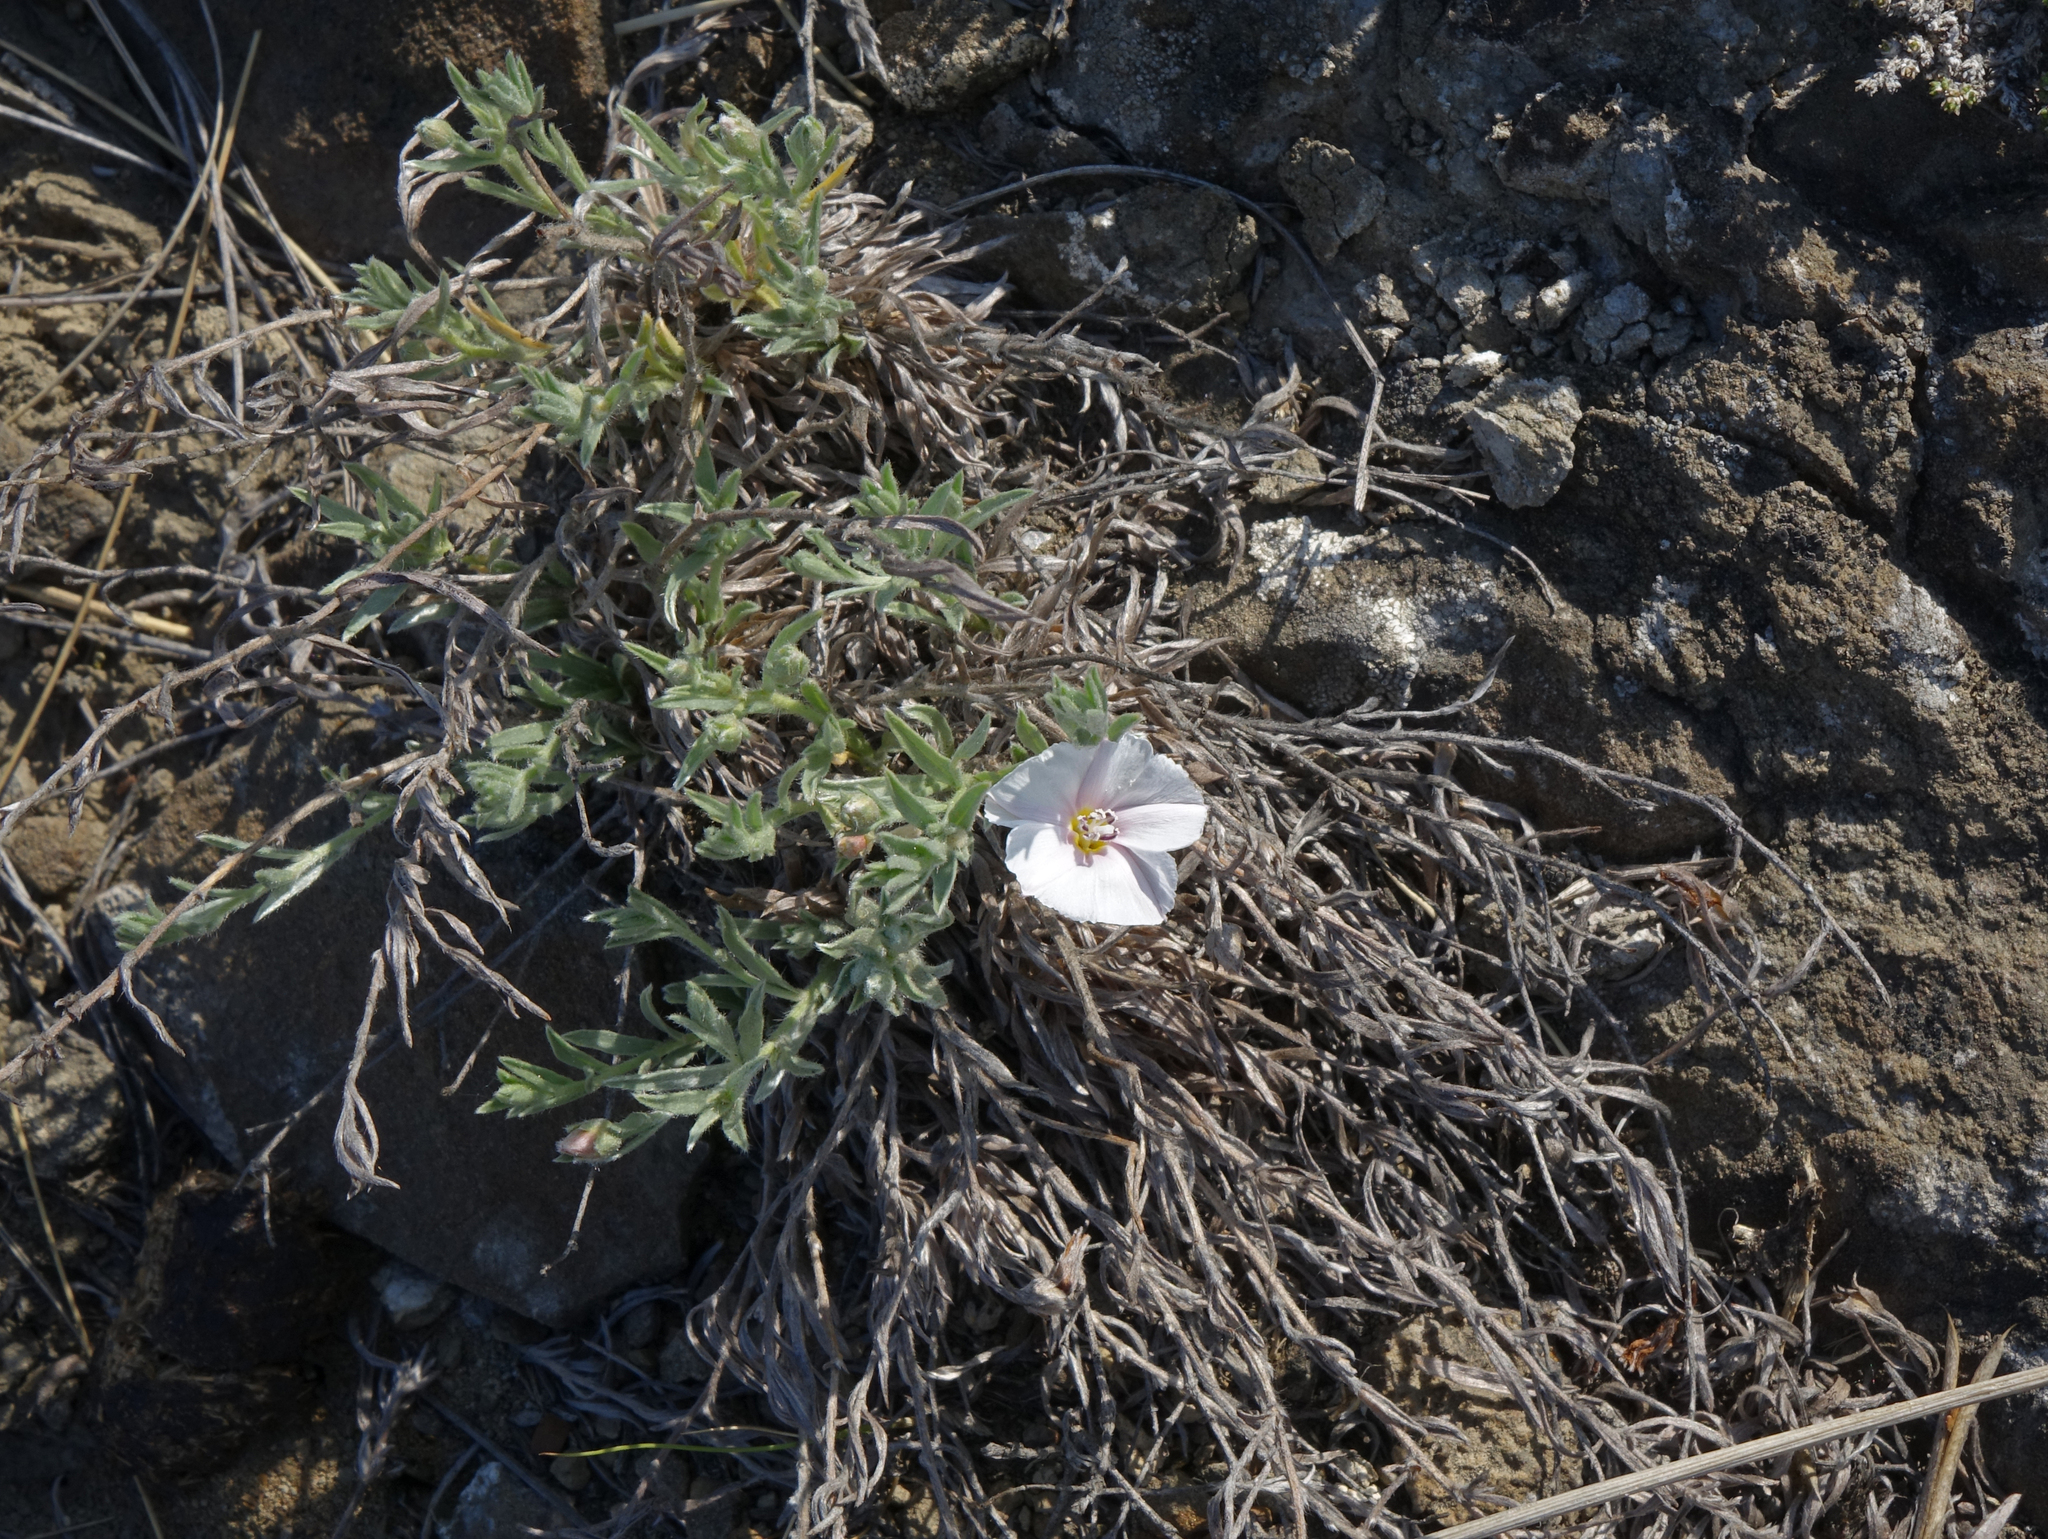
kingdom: Plantae
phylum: Tracheophyta
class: Magnoliopsida
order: Solanales
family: Convolvulaceae
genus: Convolvulus
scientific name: Convolvulus ammannii
